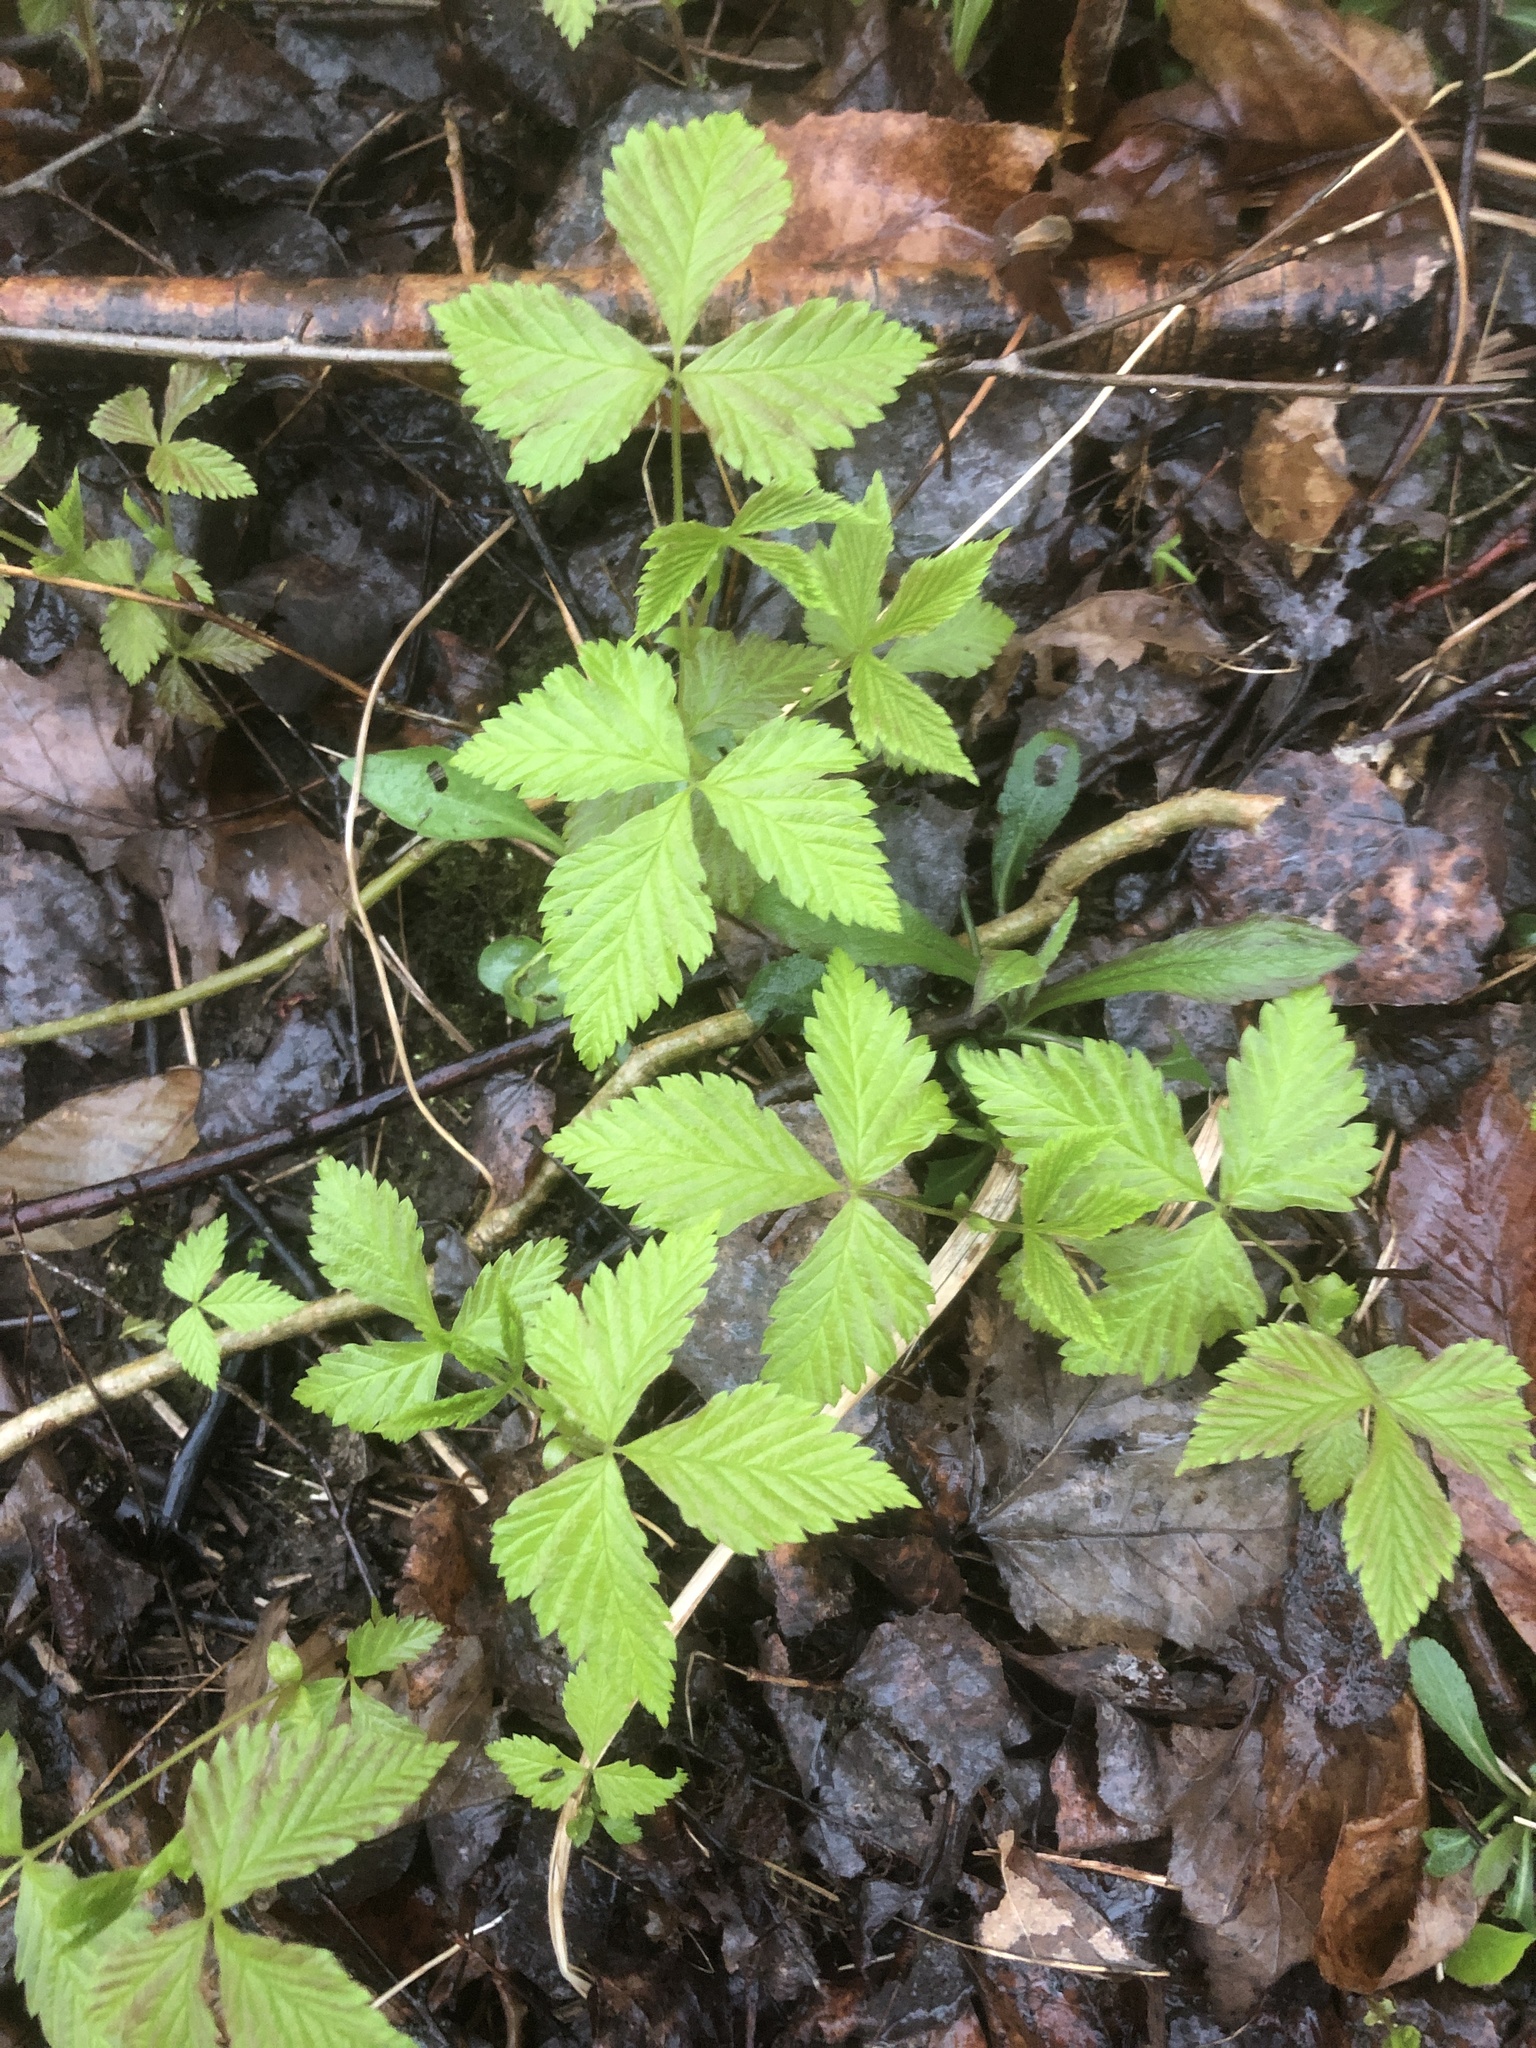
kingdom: Plantae
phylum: Tracheophyta
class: Magnoliopsida
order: Rosales
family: Rosaceae
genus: Rubus
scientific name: Rubus pubescens
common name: Dwarf raspberry
